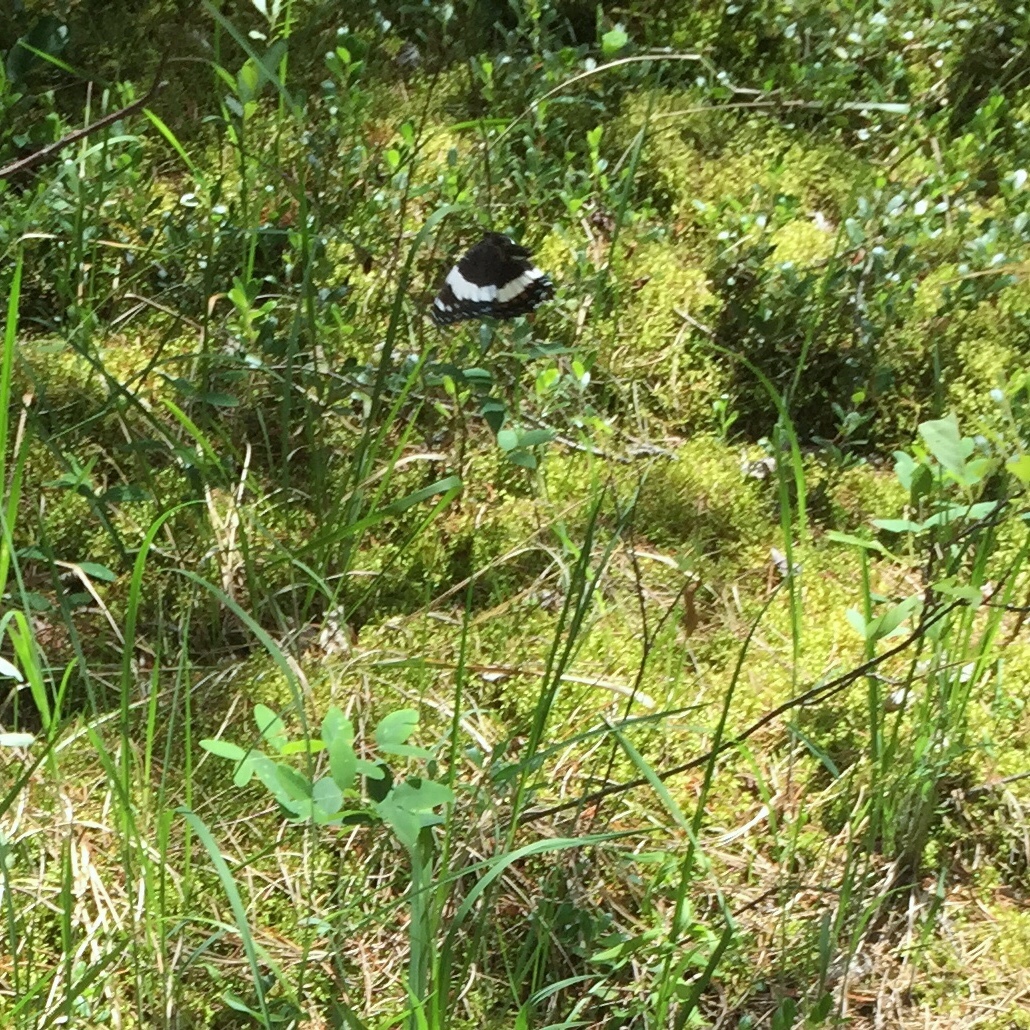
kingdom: Animalia
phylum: Arthropoda
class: Insecta
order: Lepidoptera
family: Nymphalidae
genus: Limenitis
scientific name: Limenitis arthemis
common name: Red-spotted admiral
